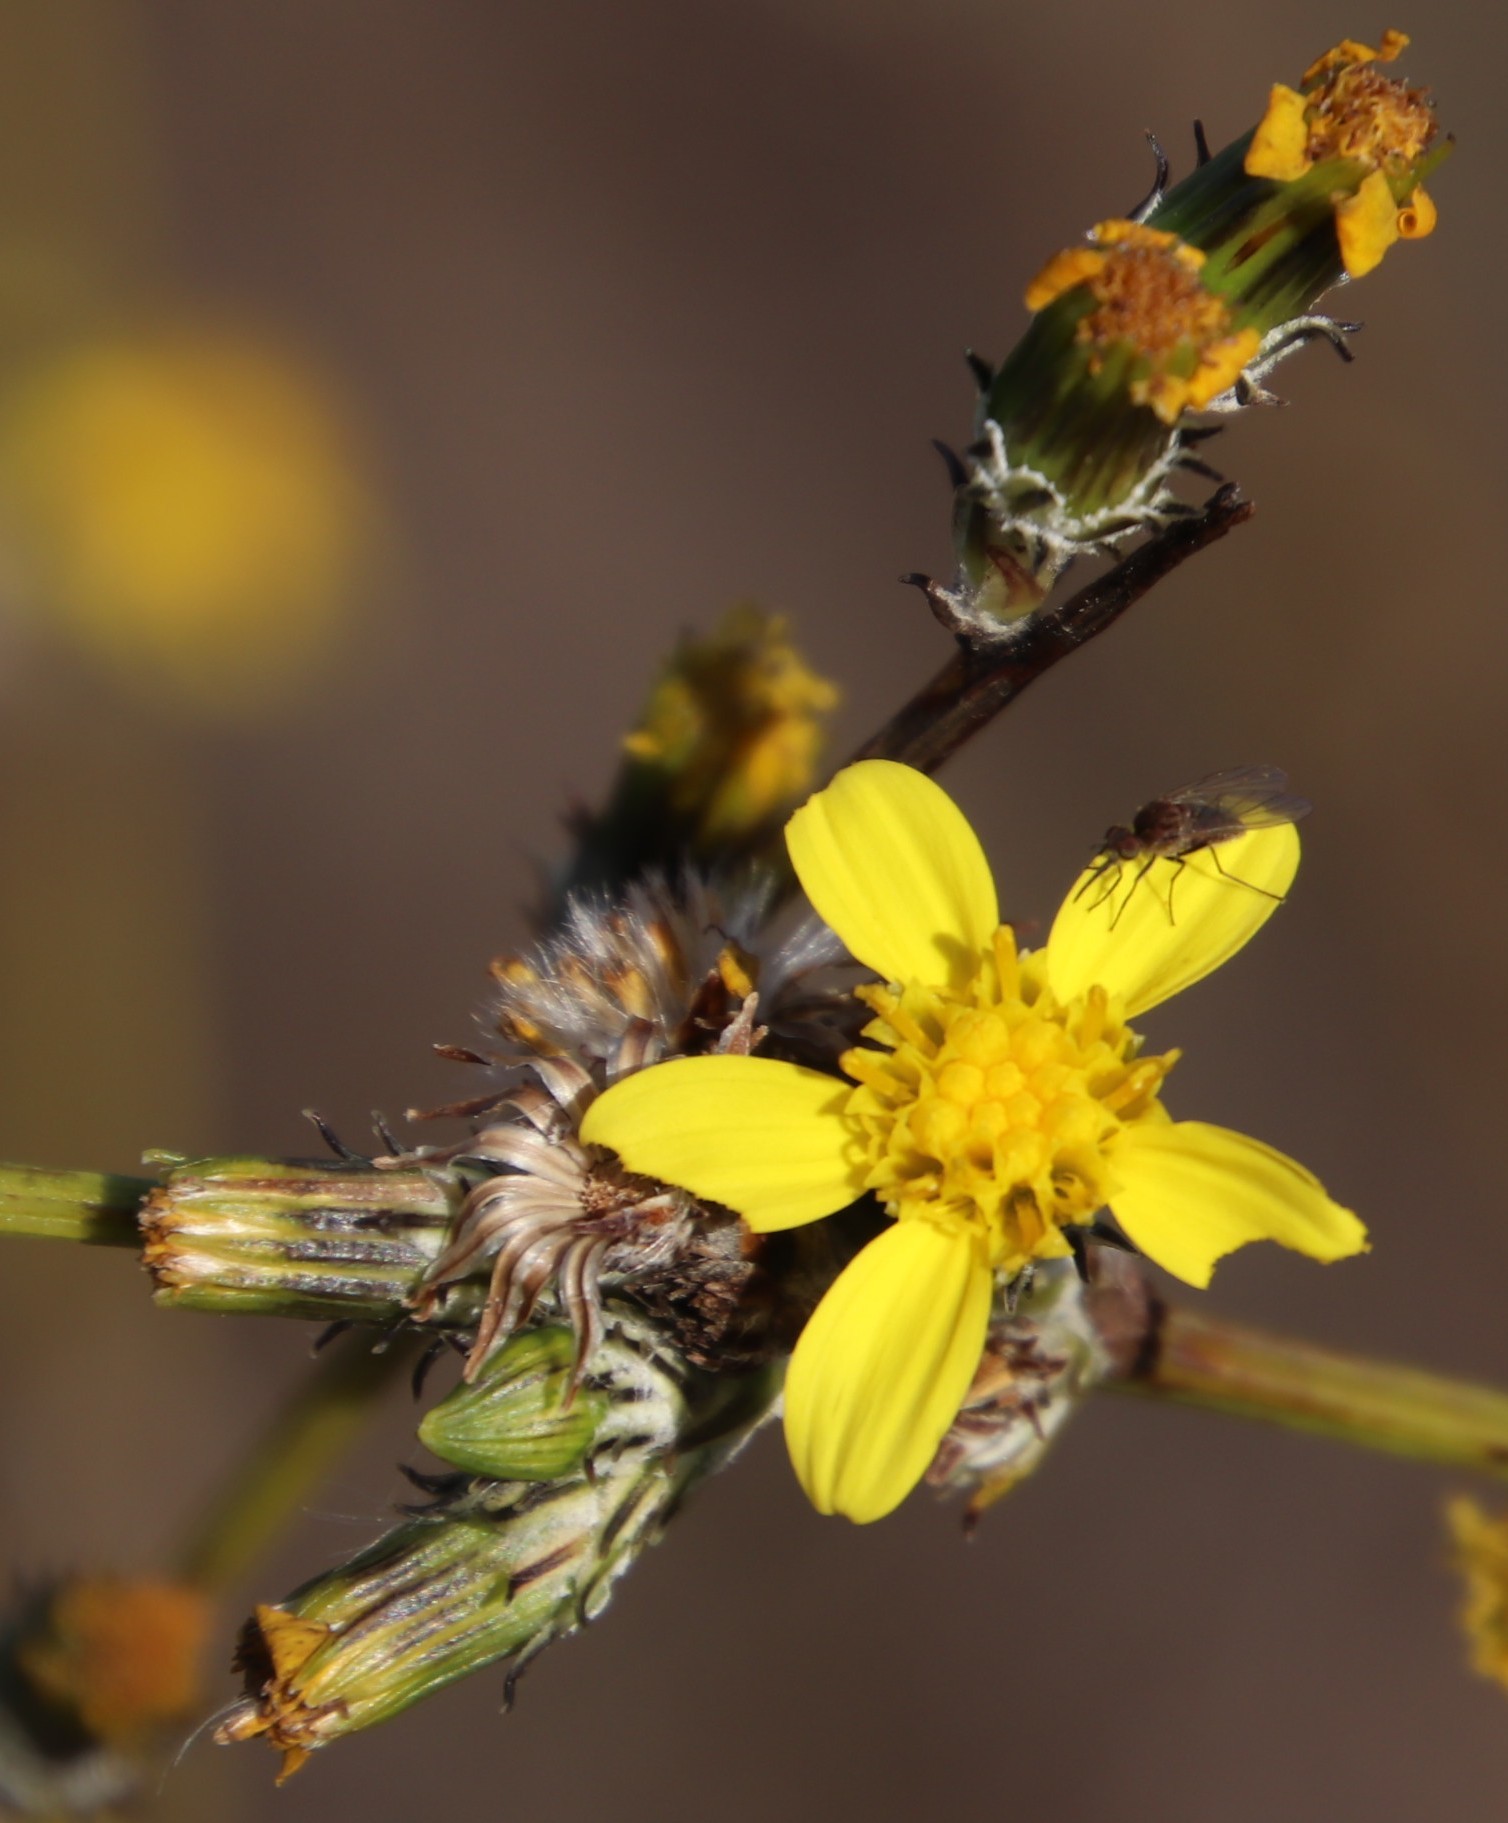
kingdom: Plantae
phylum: Tracheophyta
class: Magnoliopsida
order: Asterales
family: Asteraceae
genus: Senecio
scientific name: Senecio pubigerus
